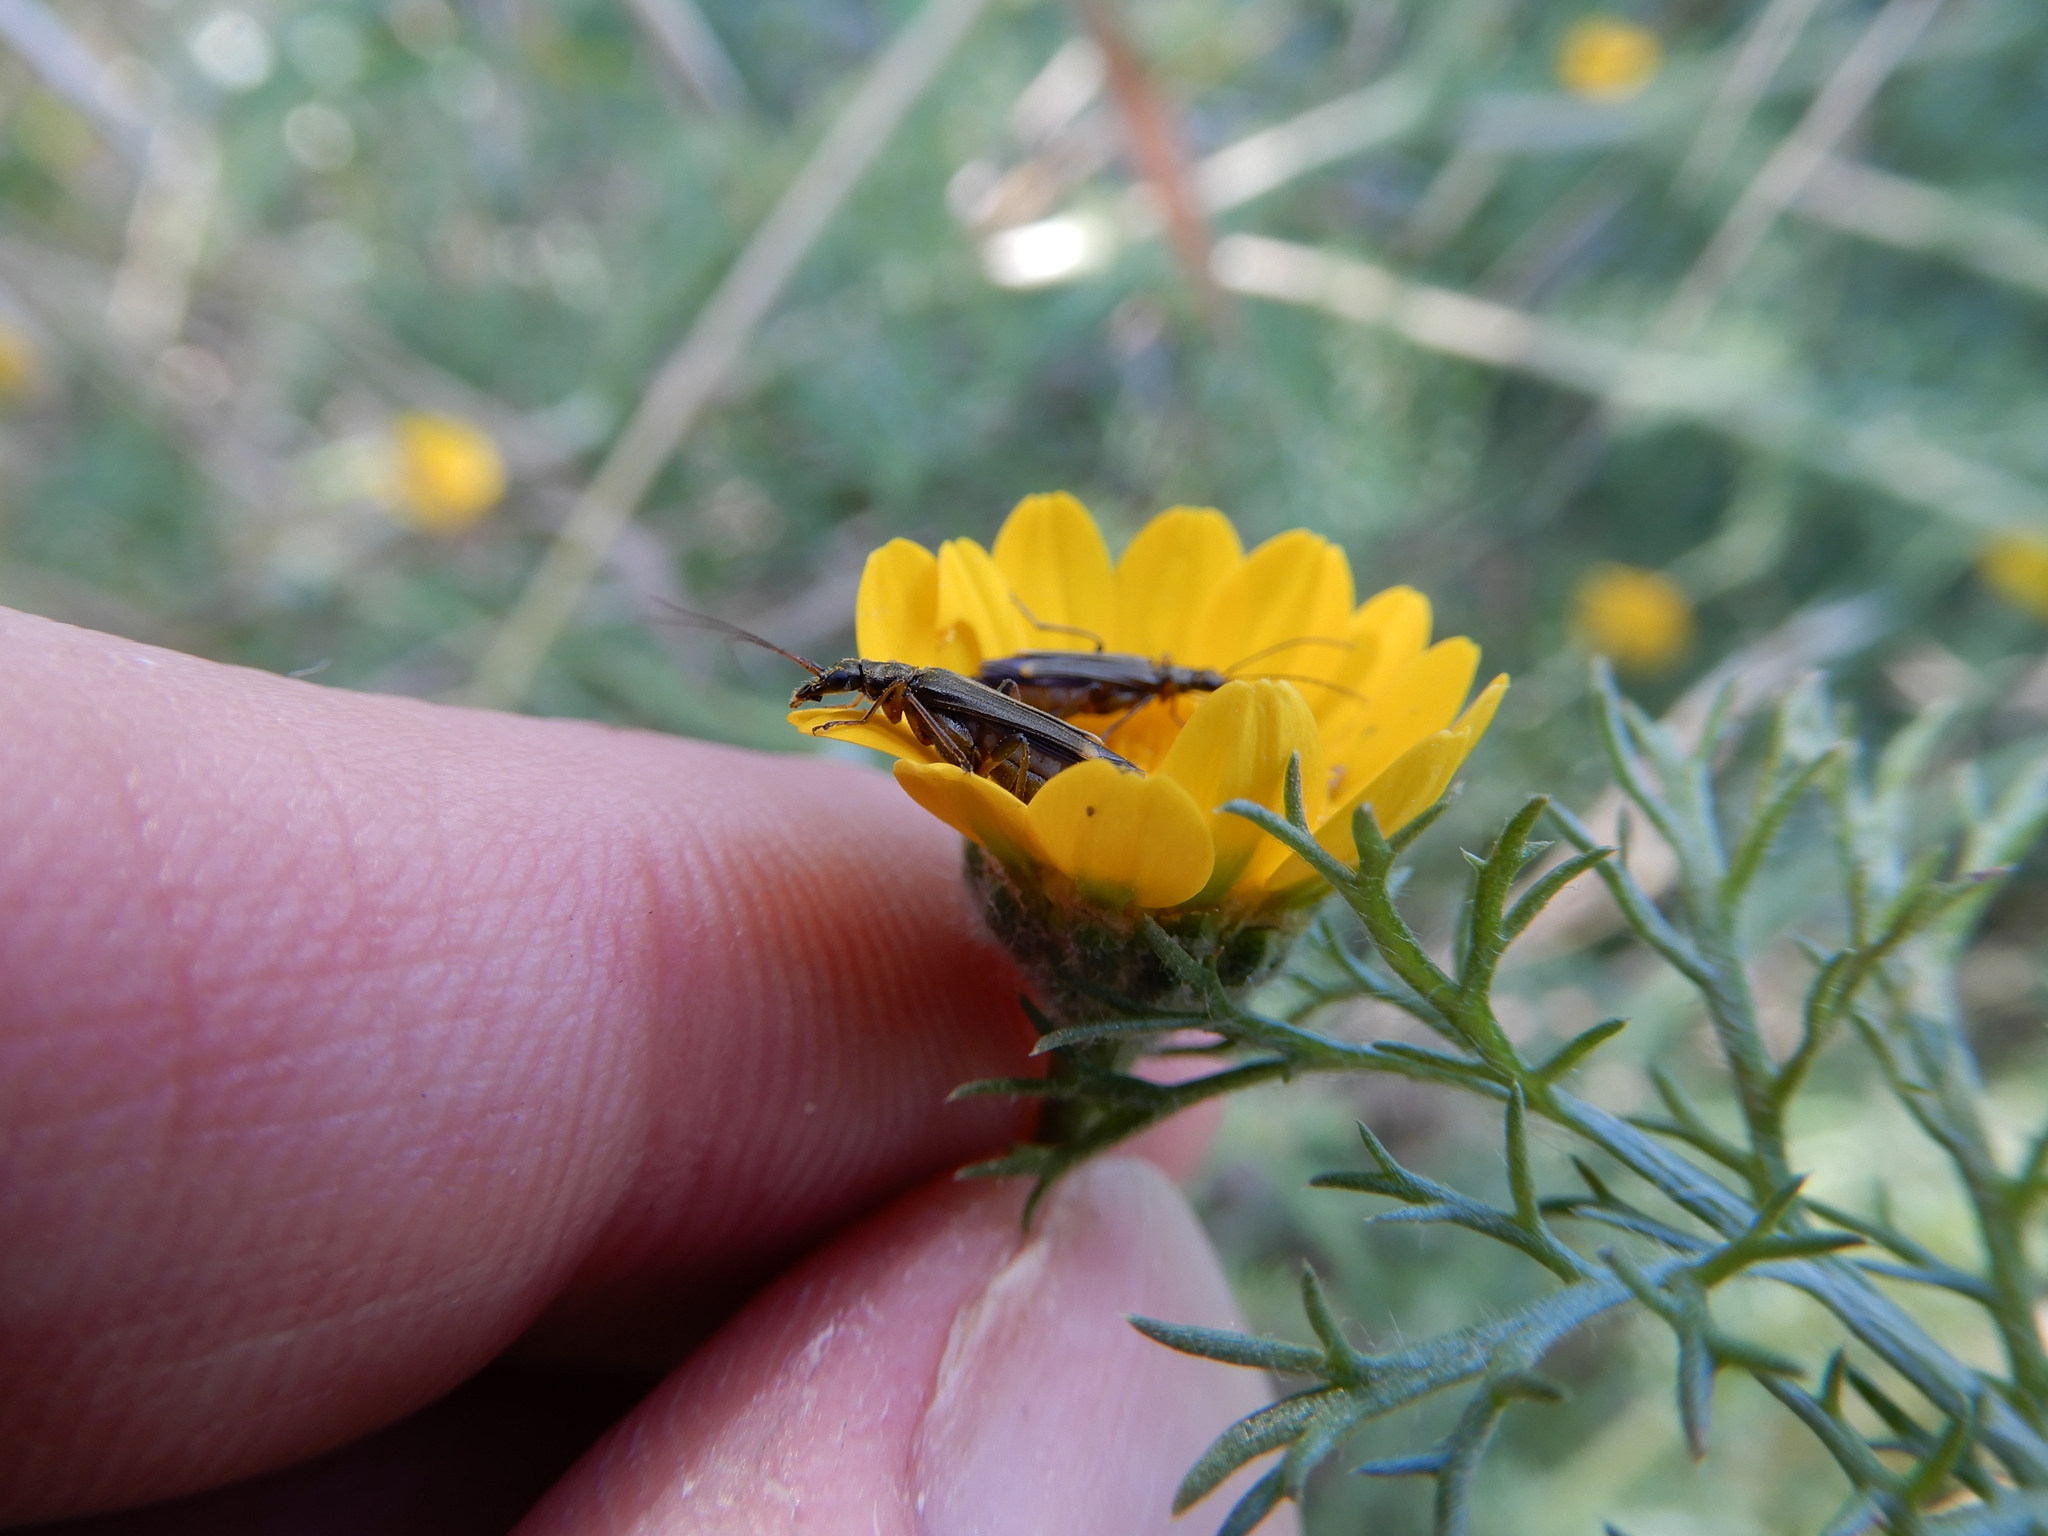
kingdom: Animalia
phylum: Arthropoda
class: Insecta
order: Coleoptera
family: Oedemeridae
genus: Oedemera
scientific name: Oedemera barbara
